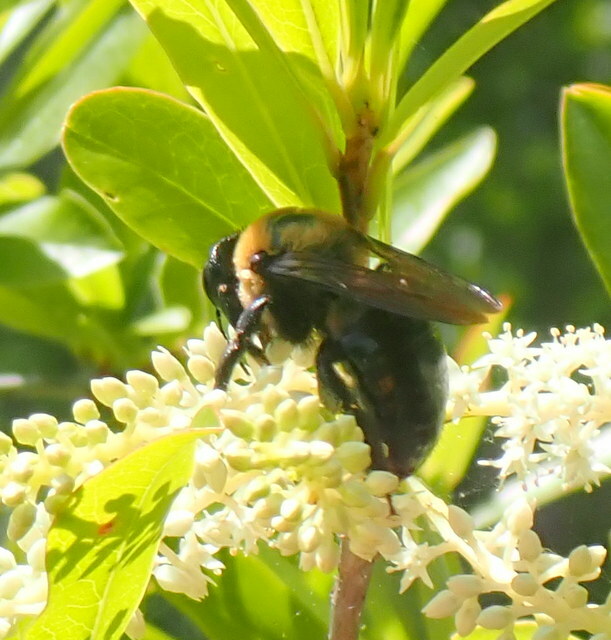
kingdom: Animalia
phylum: Arthropoda
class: Insecta
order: Hymenoptera
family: Apidae
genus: Xylocopa
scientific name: Xylocopa virginica
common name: Carpenter bee
